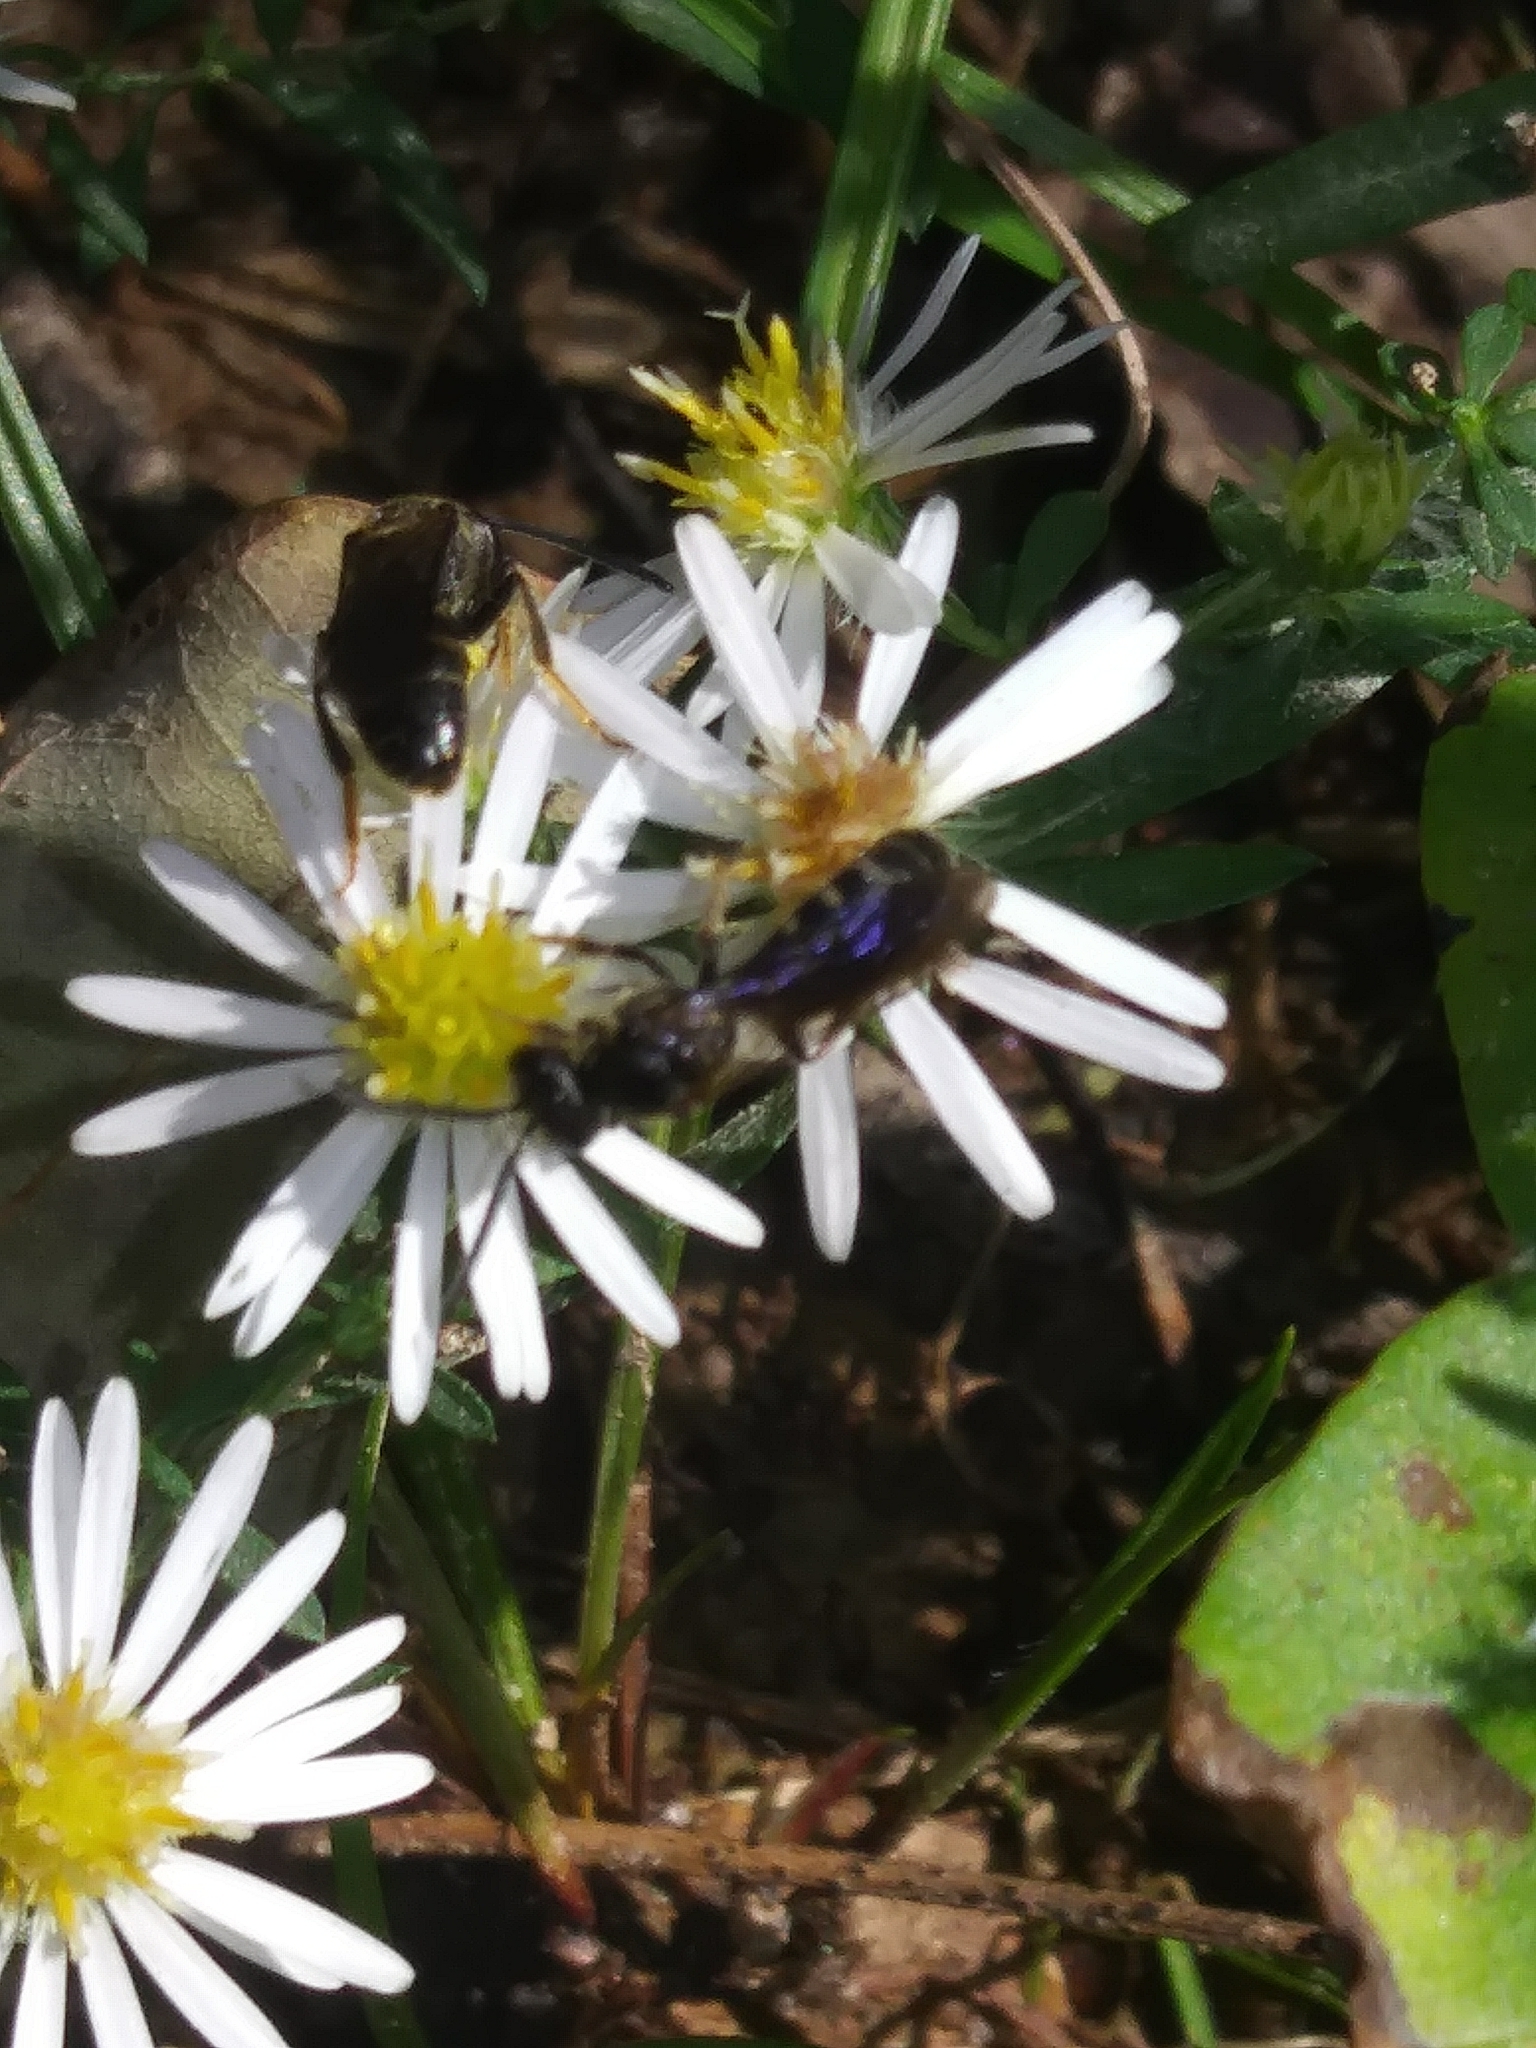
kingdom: Animalia
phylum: Arthropoda
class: Insecta
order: Hymenoptera
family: Halictidae
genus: Lasioglossum
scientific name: Lasioglossum fuscipenne
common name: Brown-winged sweat bee
